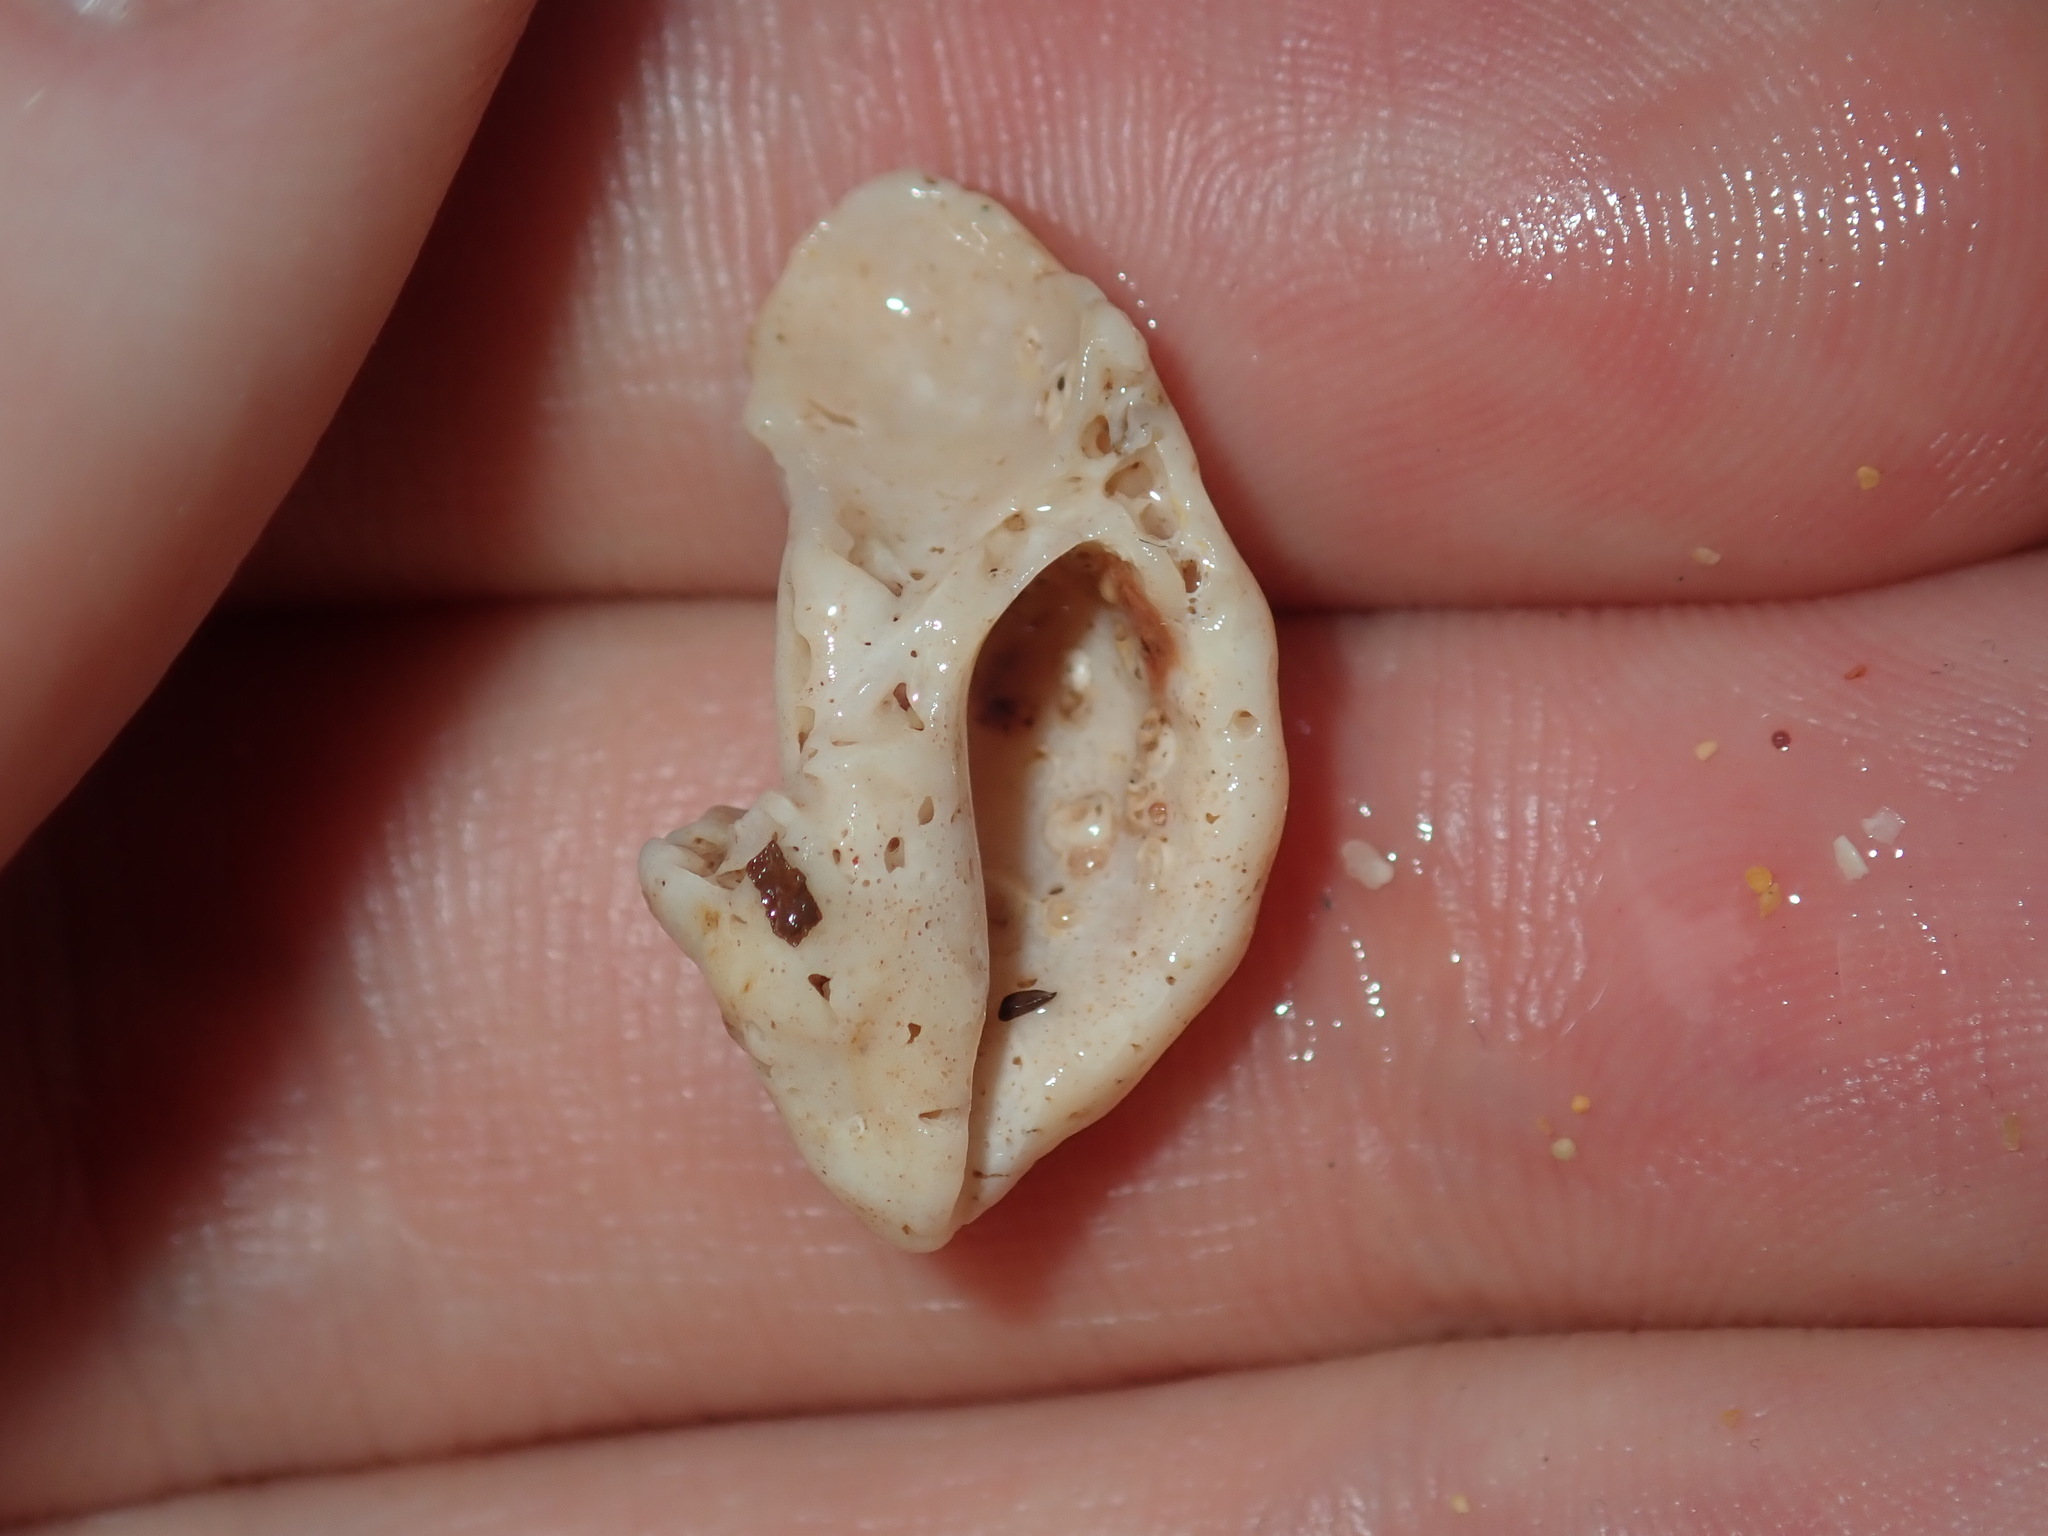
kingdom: Animalia
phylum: Mollusca
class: Gastropoda
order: Neogastropoda
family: Muricidae
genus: Cronia
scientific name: Cronia aurantiaca
